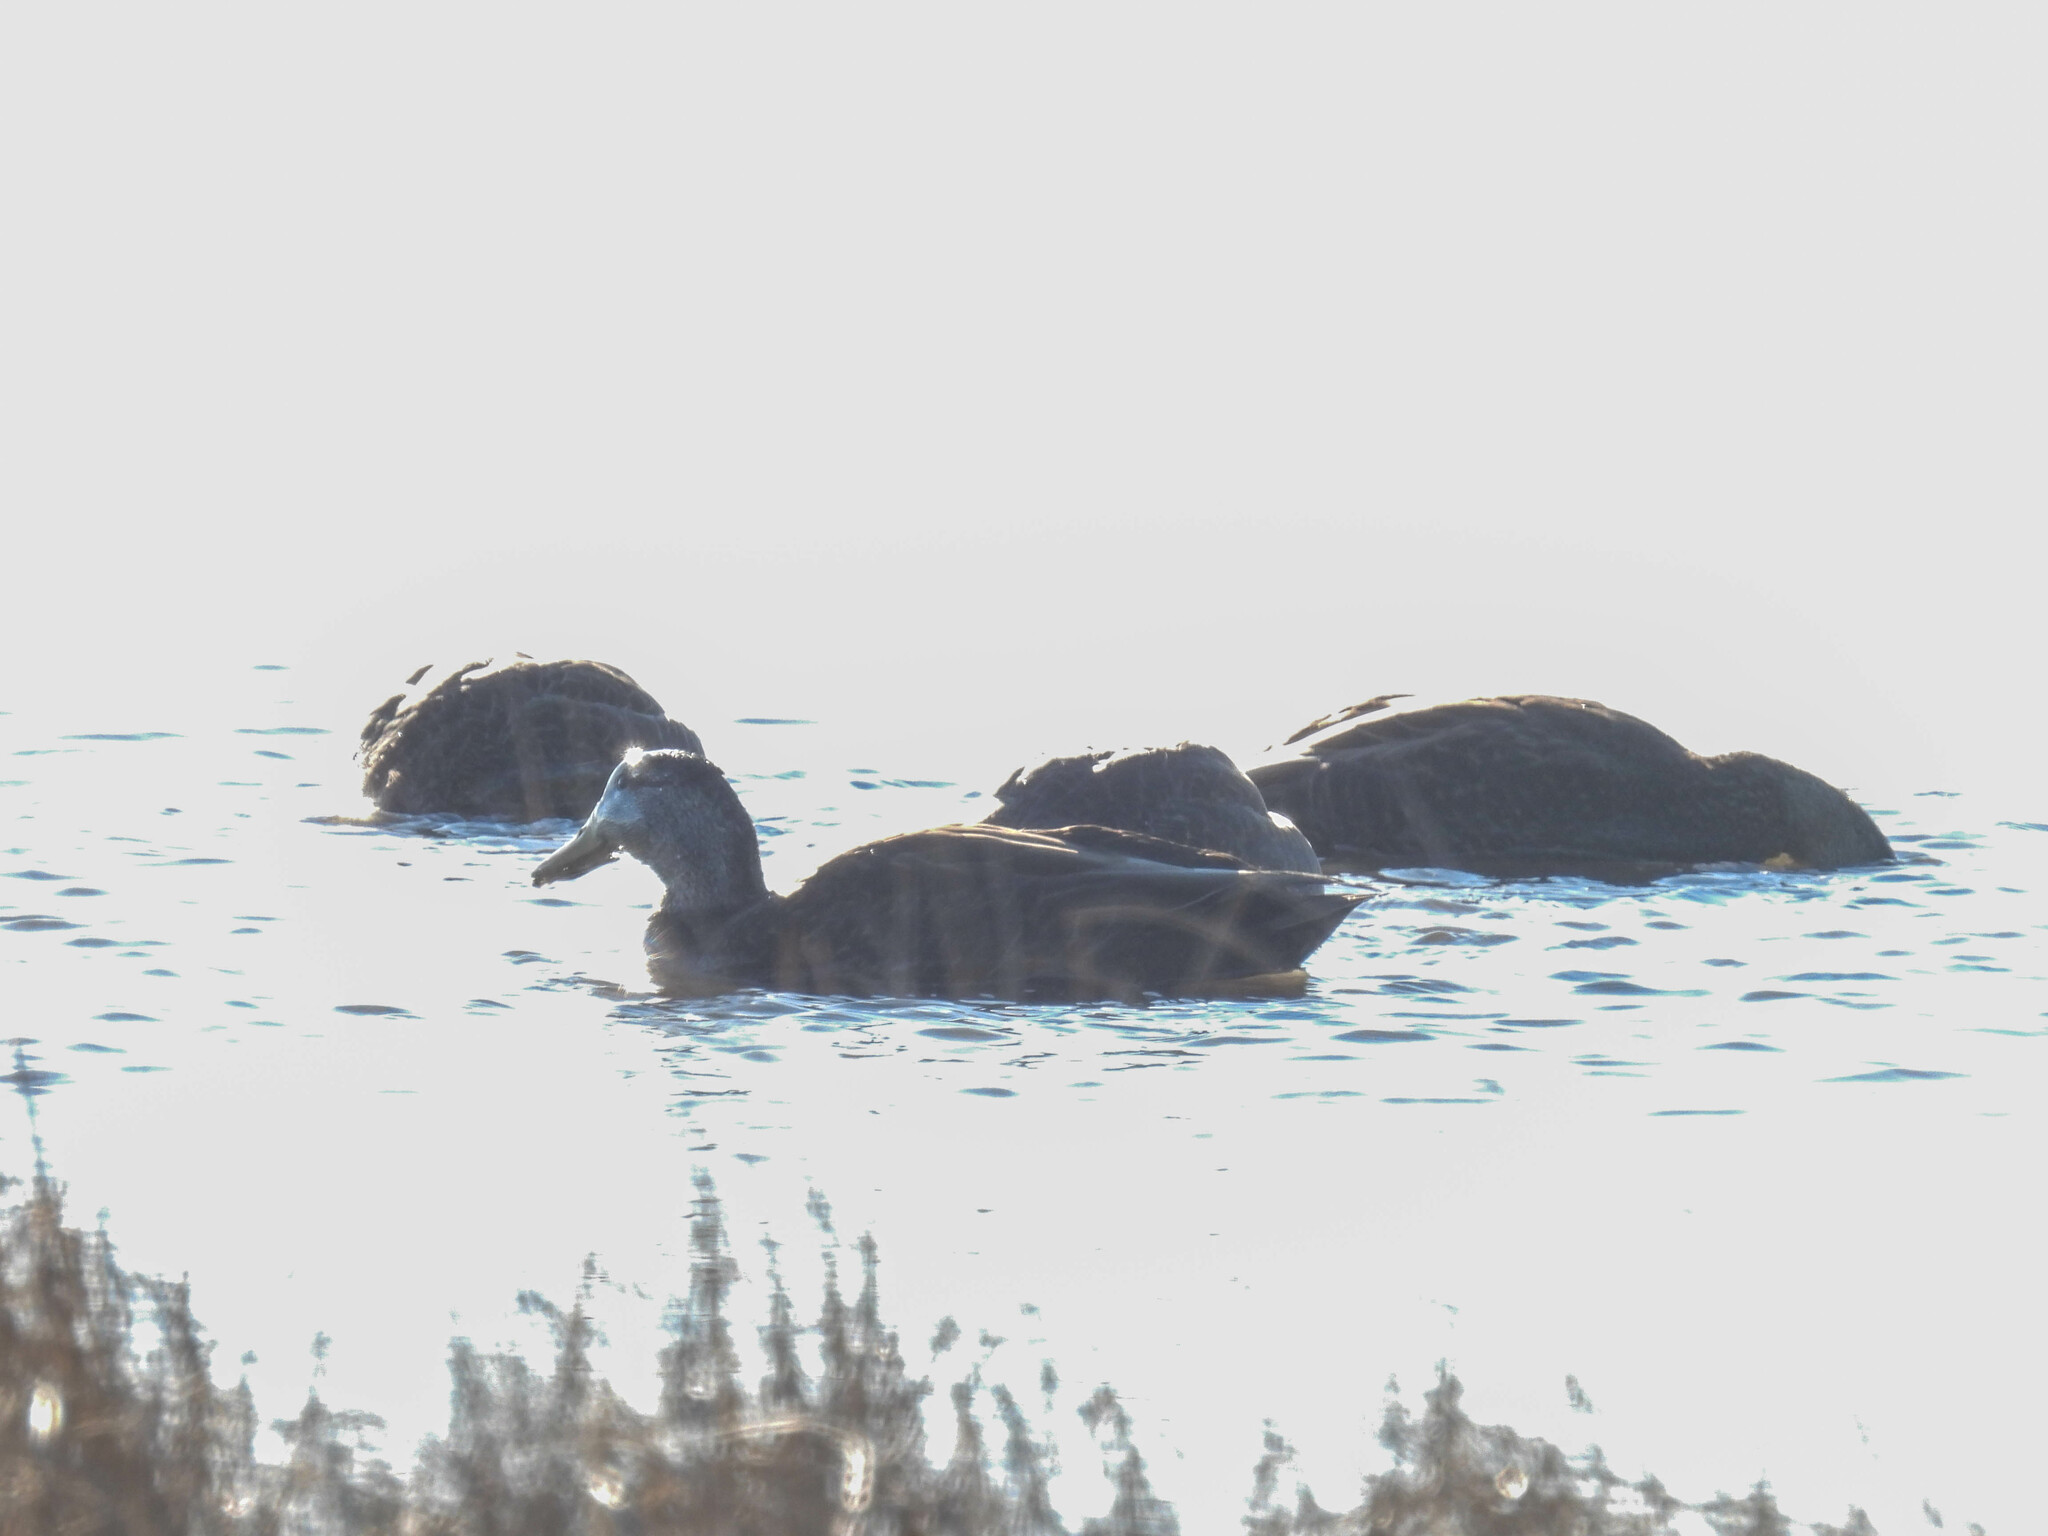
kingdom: Animalia
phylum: Chordata
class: Aves
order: Anseriformes
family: Anatidae
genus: Anas
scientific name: Anas rubripes
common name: American black duck
